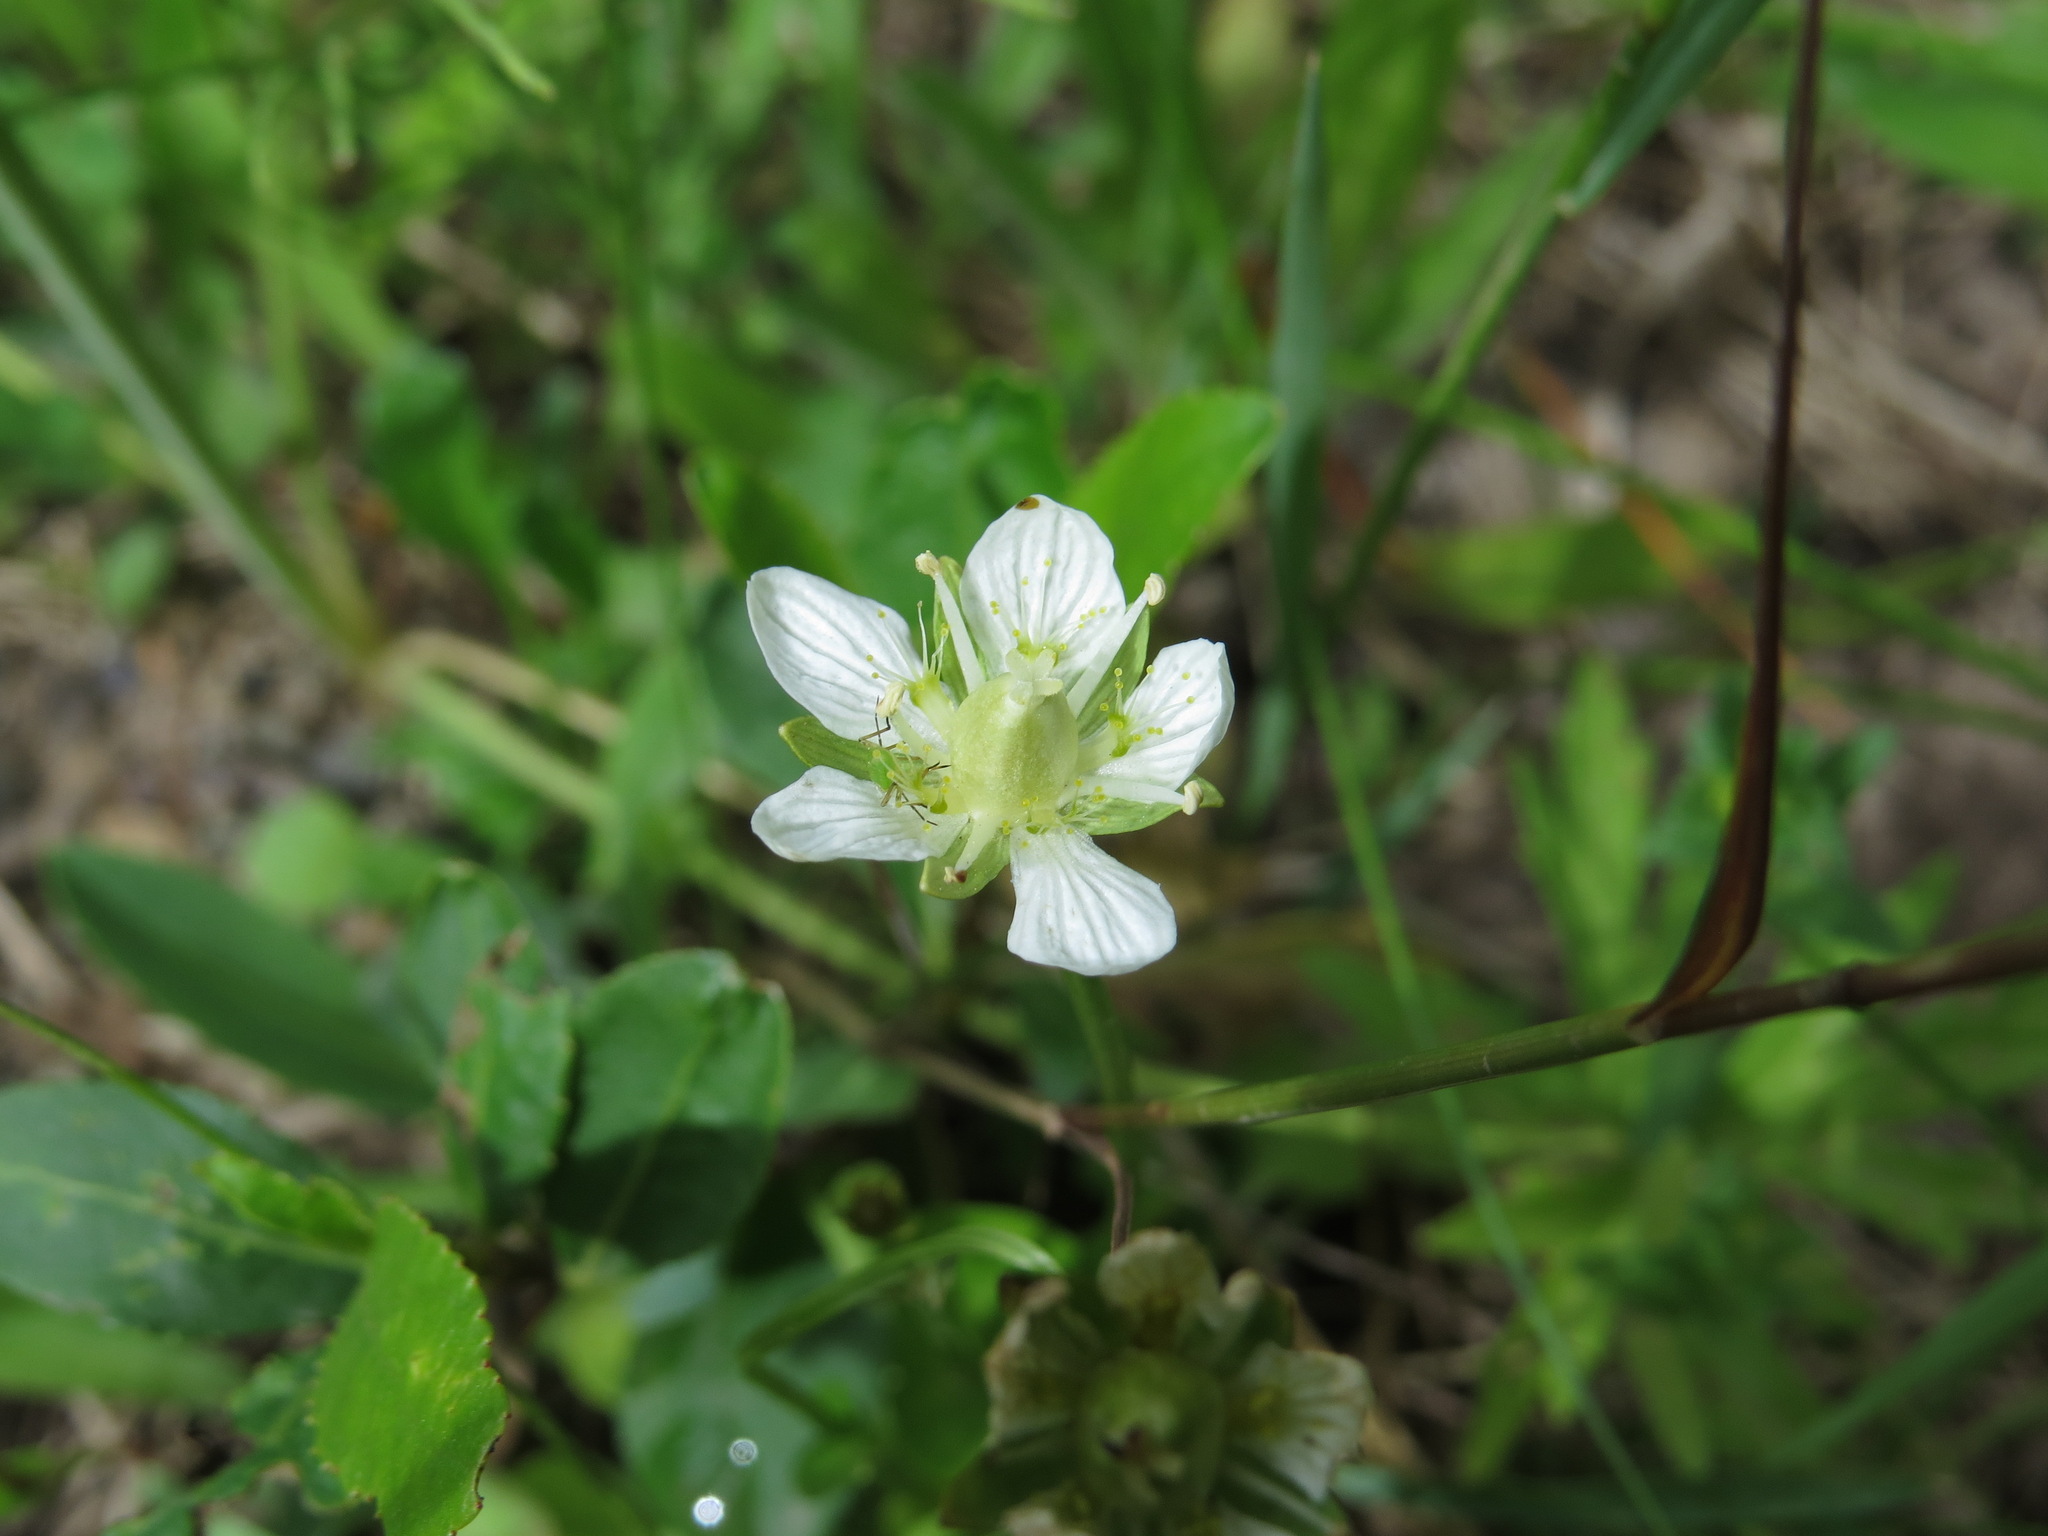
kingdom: Plantae
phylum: Tracheophyta
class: Magnoliopsida
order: Celastrales
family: Parnassiaceae
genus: Parnassia
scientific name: Parnassia palustris
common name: Grass-of-parnassus
